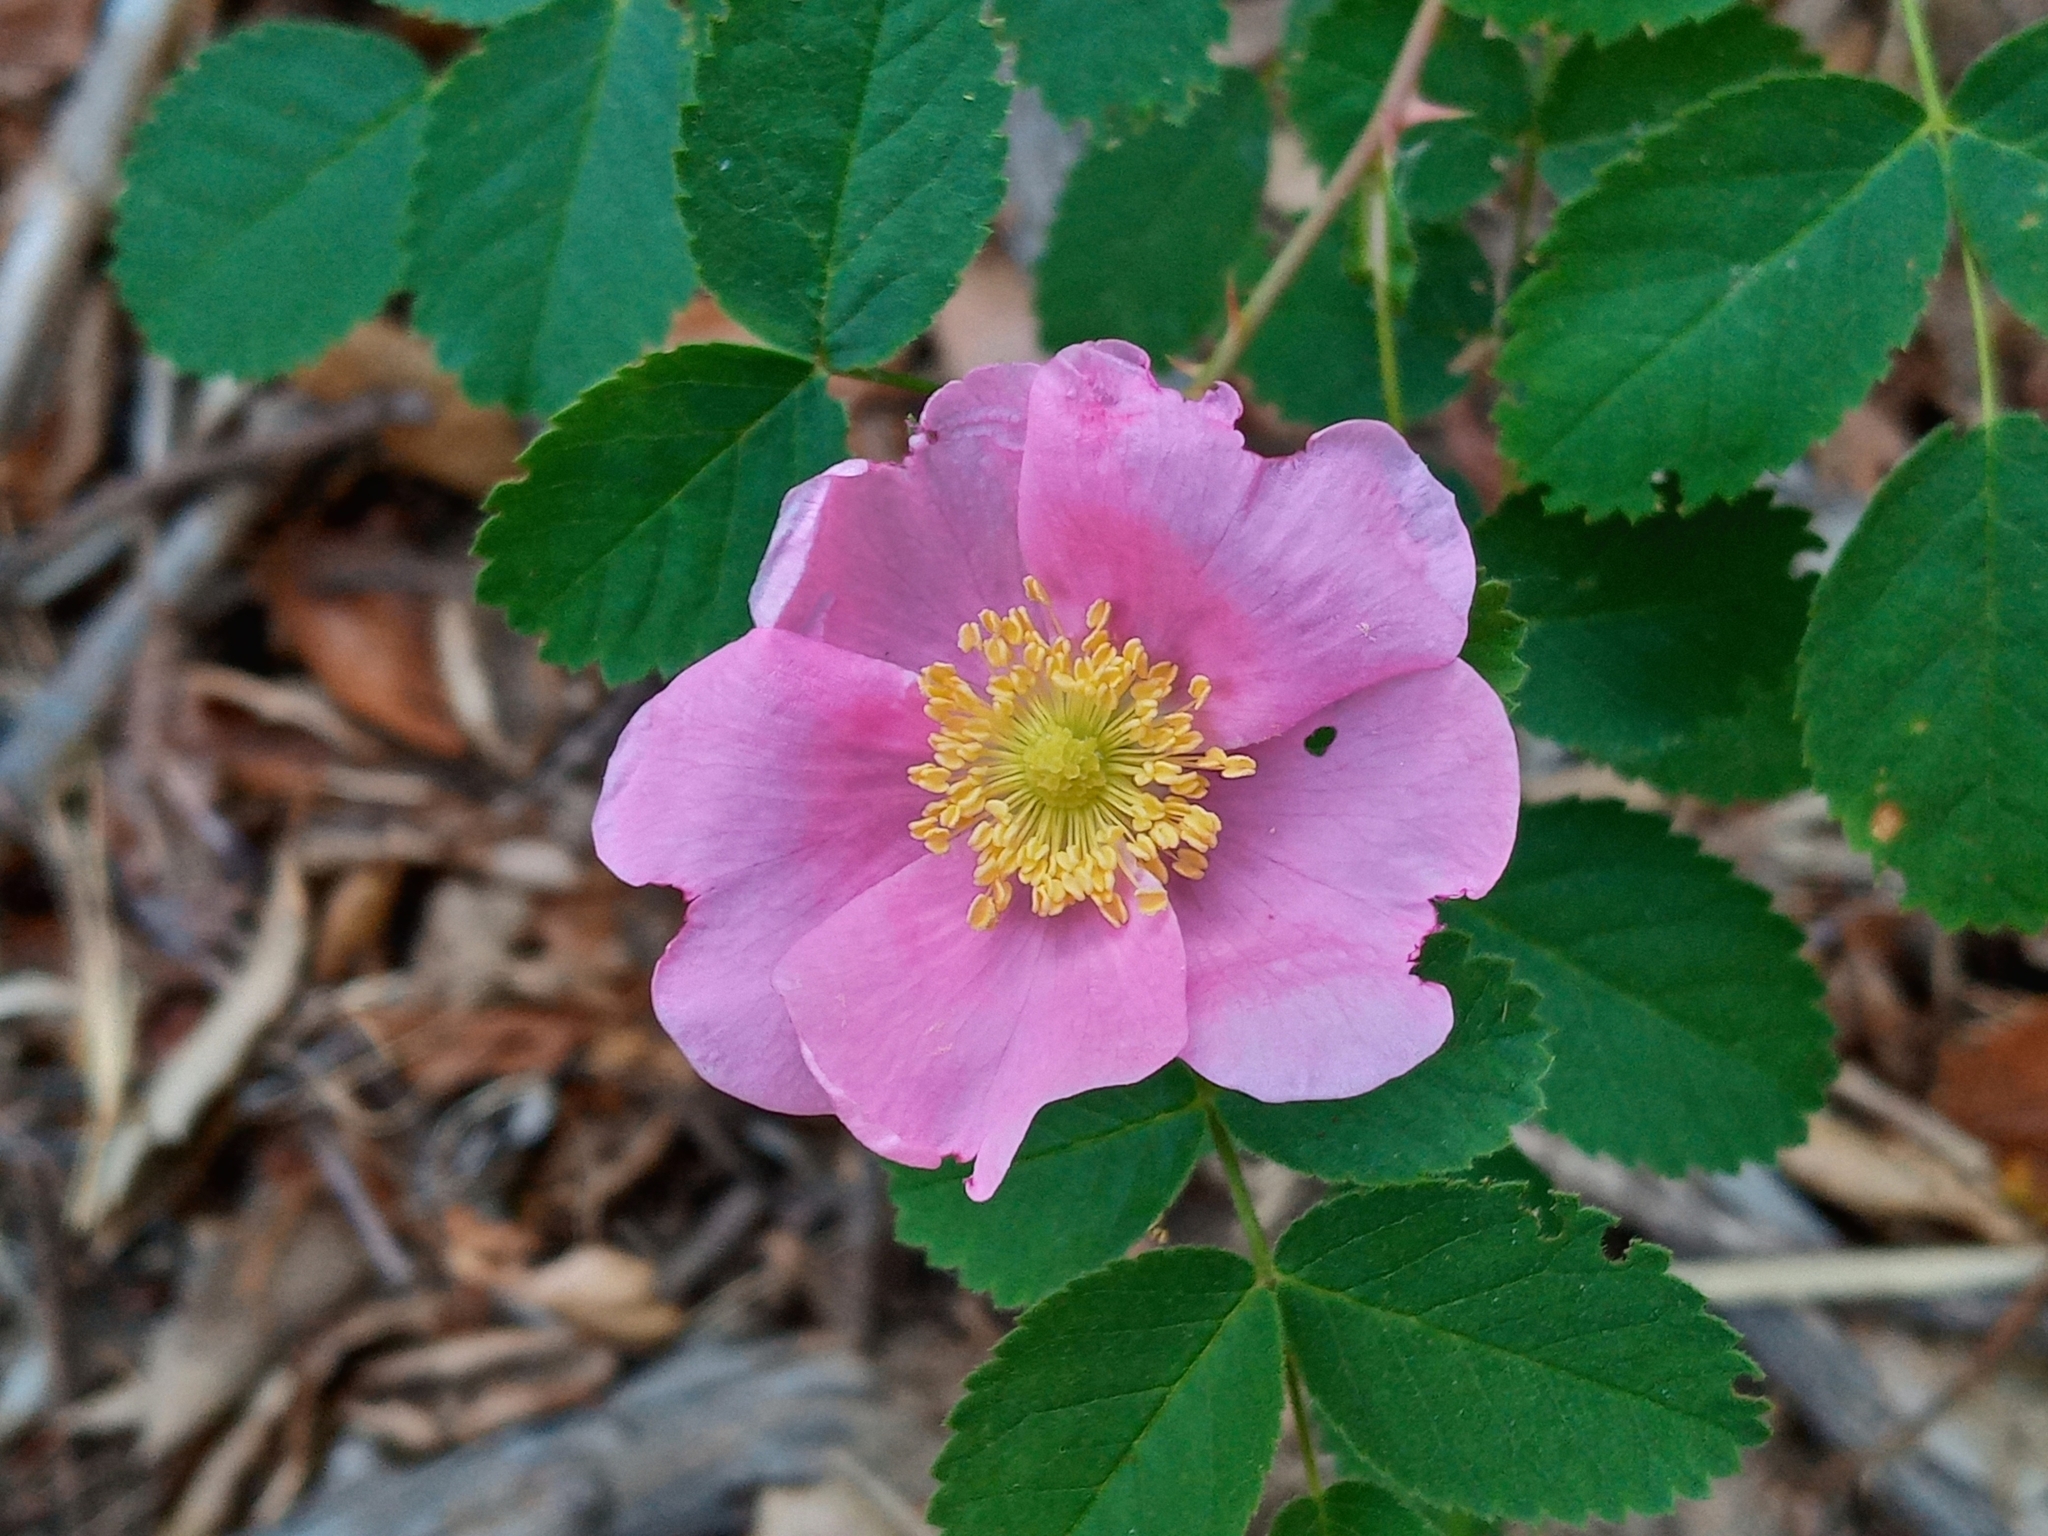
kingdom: Plantae
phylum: Tracheophyta
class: Magnoliopsida
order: Rosales
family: Rosaceae
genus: Rosa
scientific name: Rosa californica
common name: California rose
